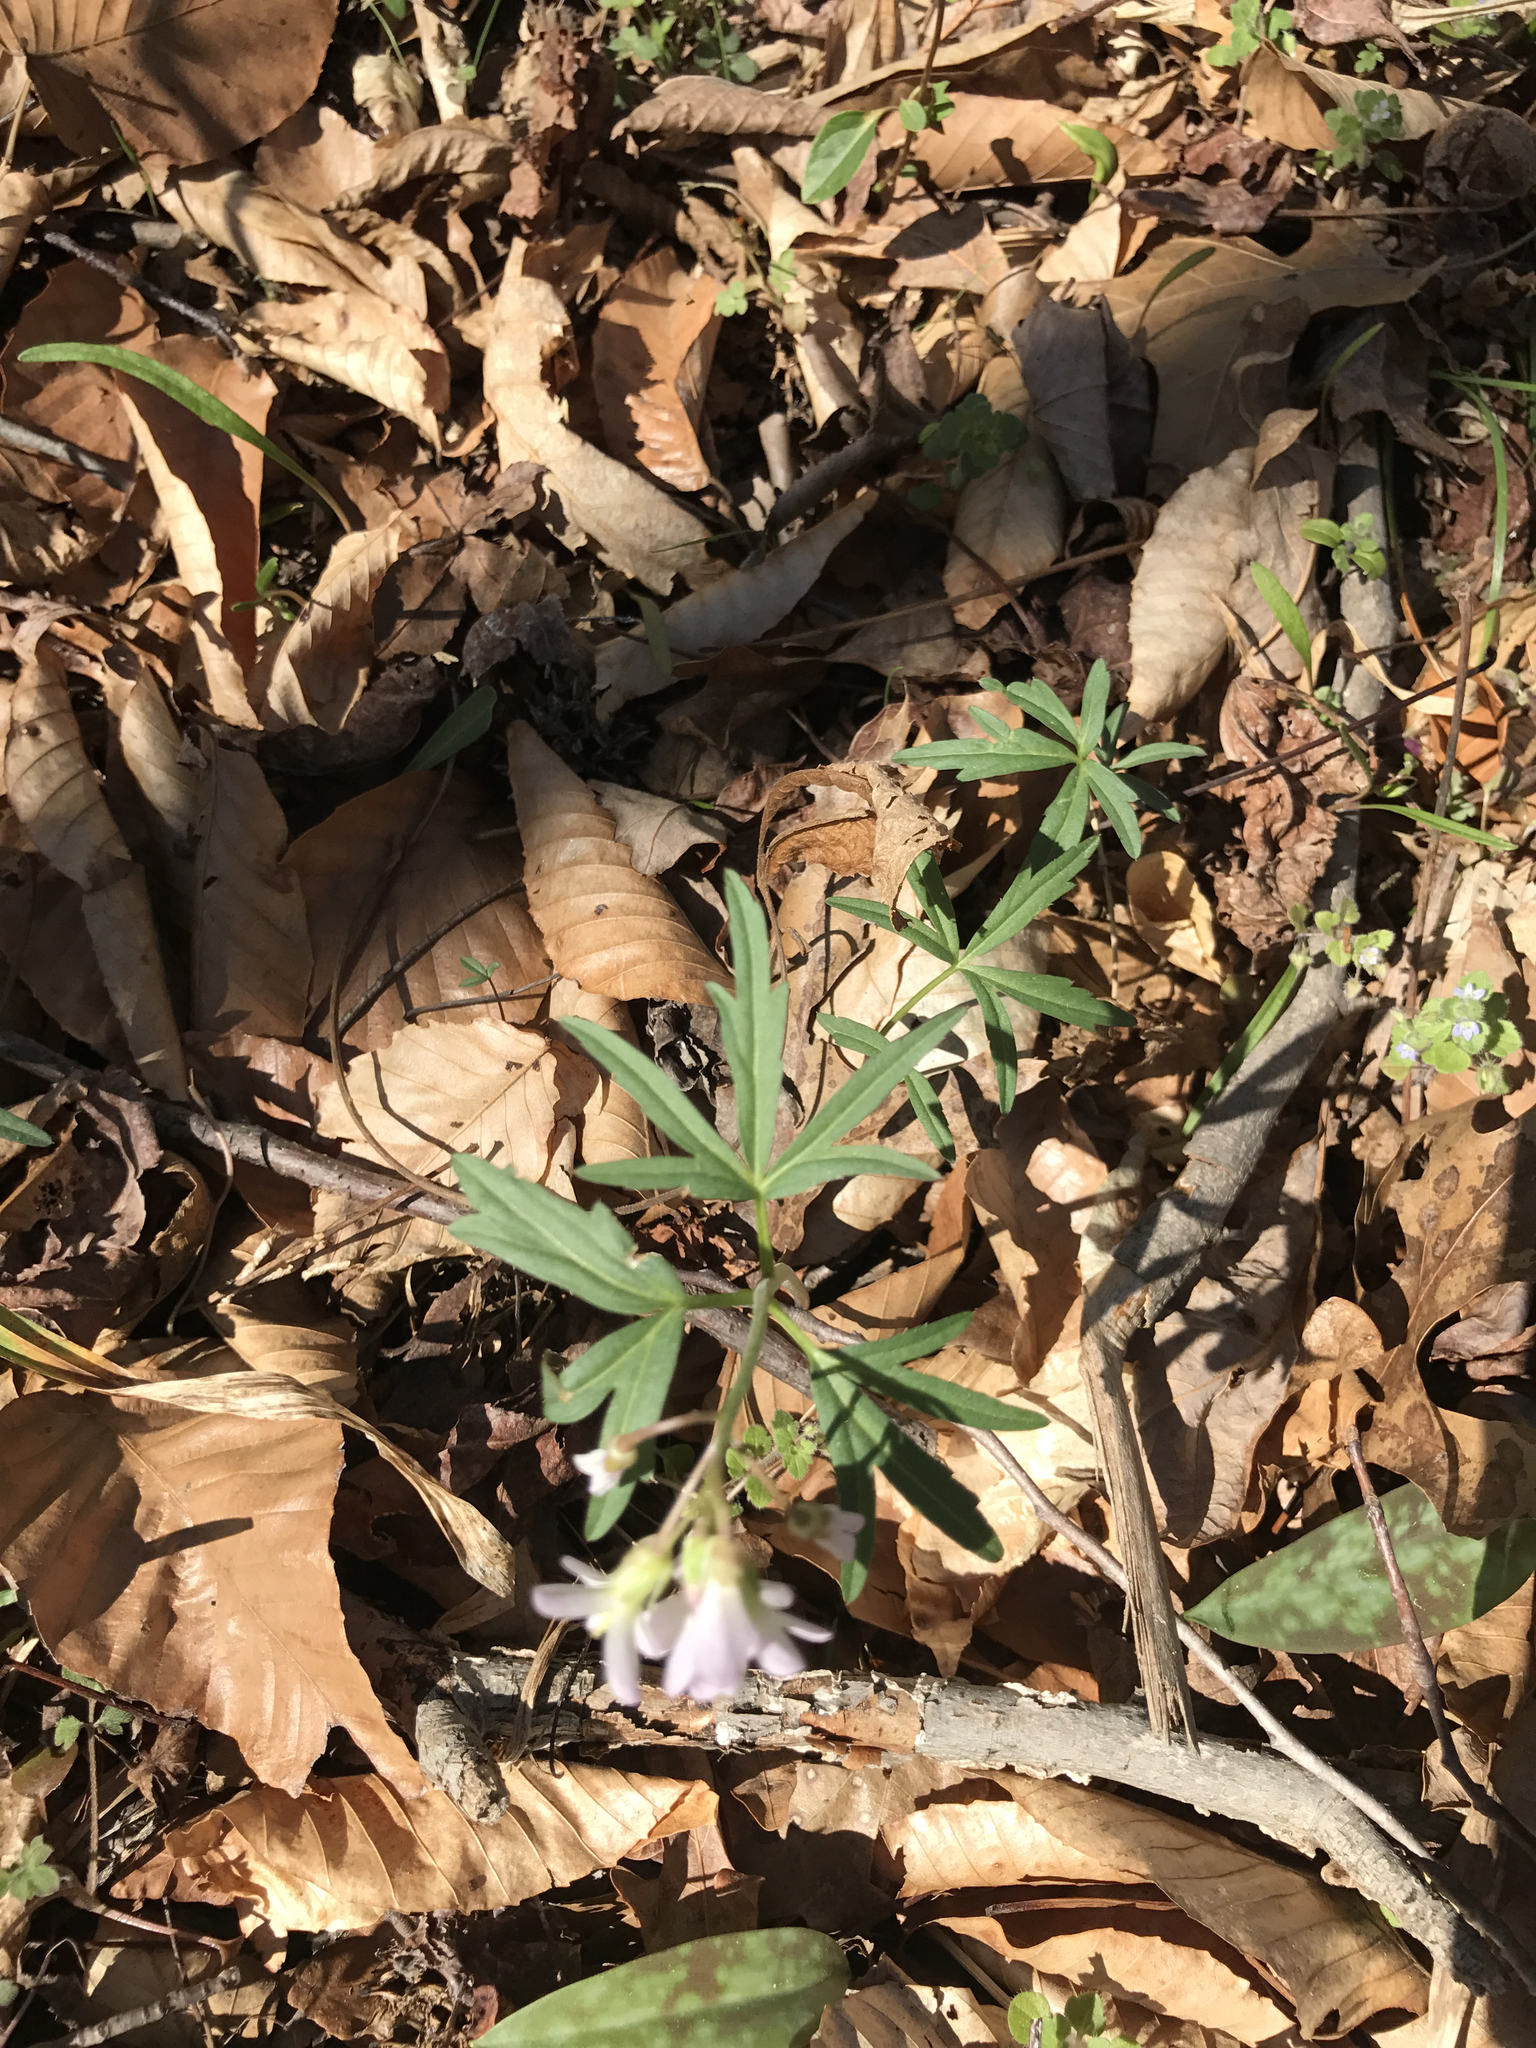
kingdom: Plantae
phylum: Tracheophyta
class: Magnoliopsida
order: Brassicales
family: Brassicaceae
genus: Cardamine
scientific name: Cardamine concatenata
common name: Cut-leaf toothcup
